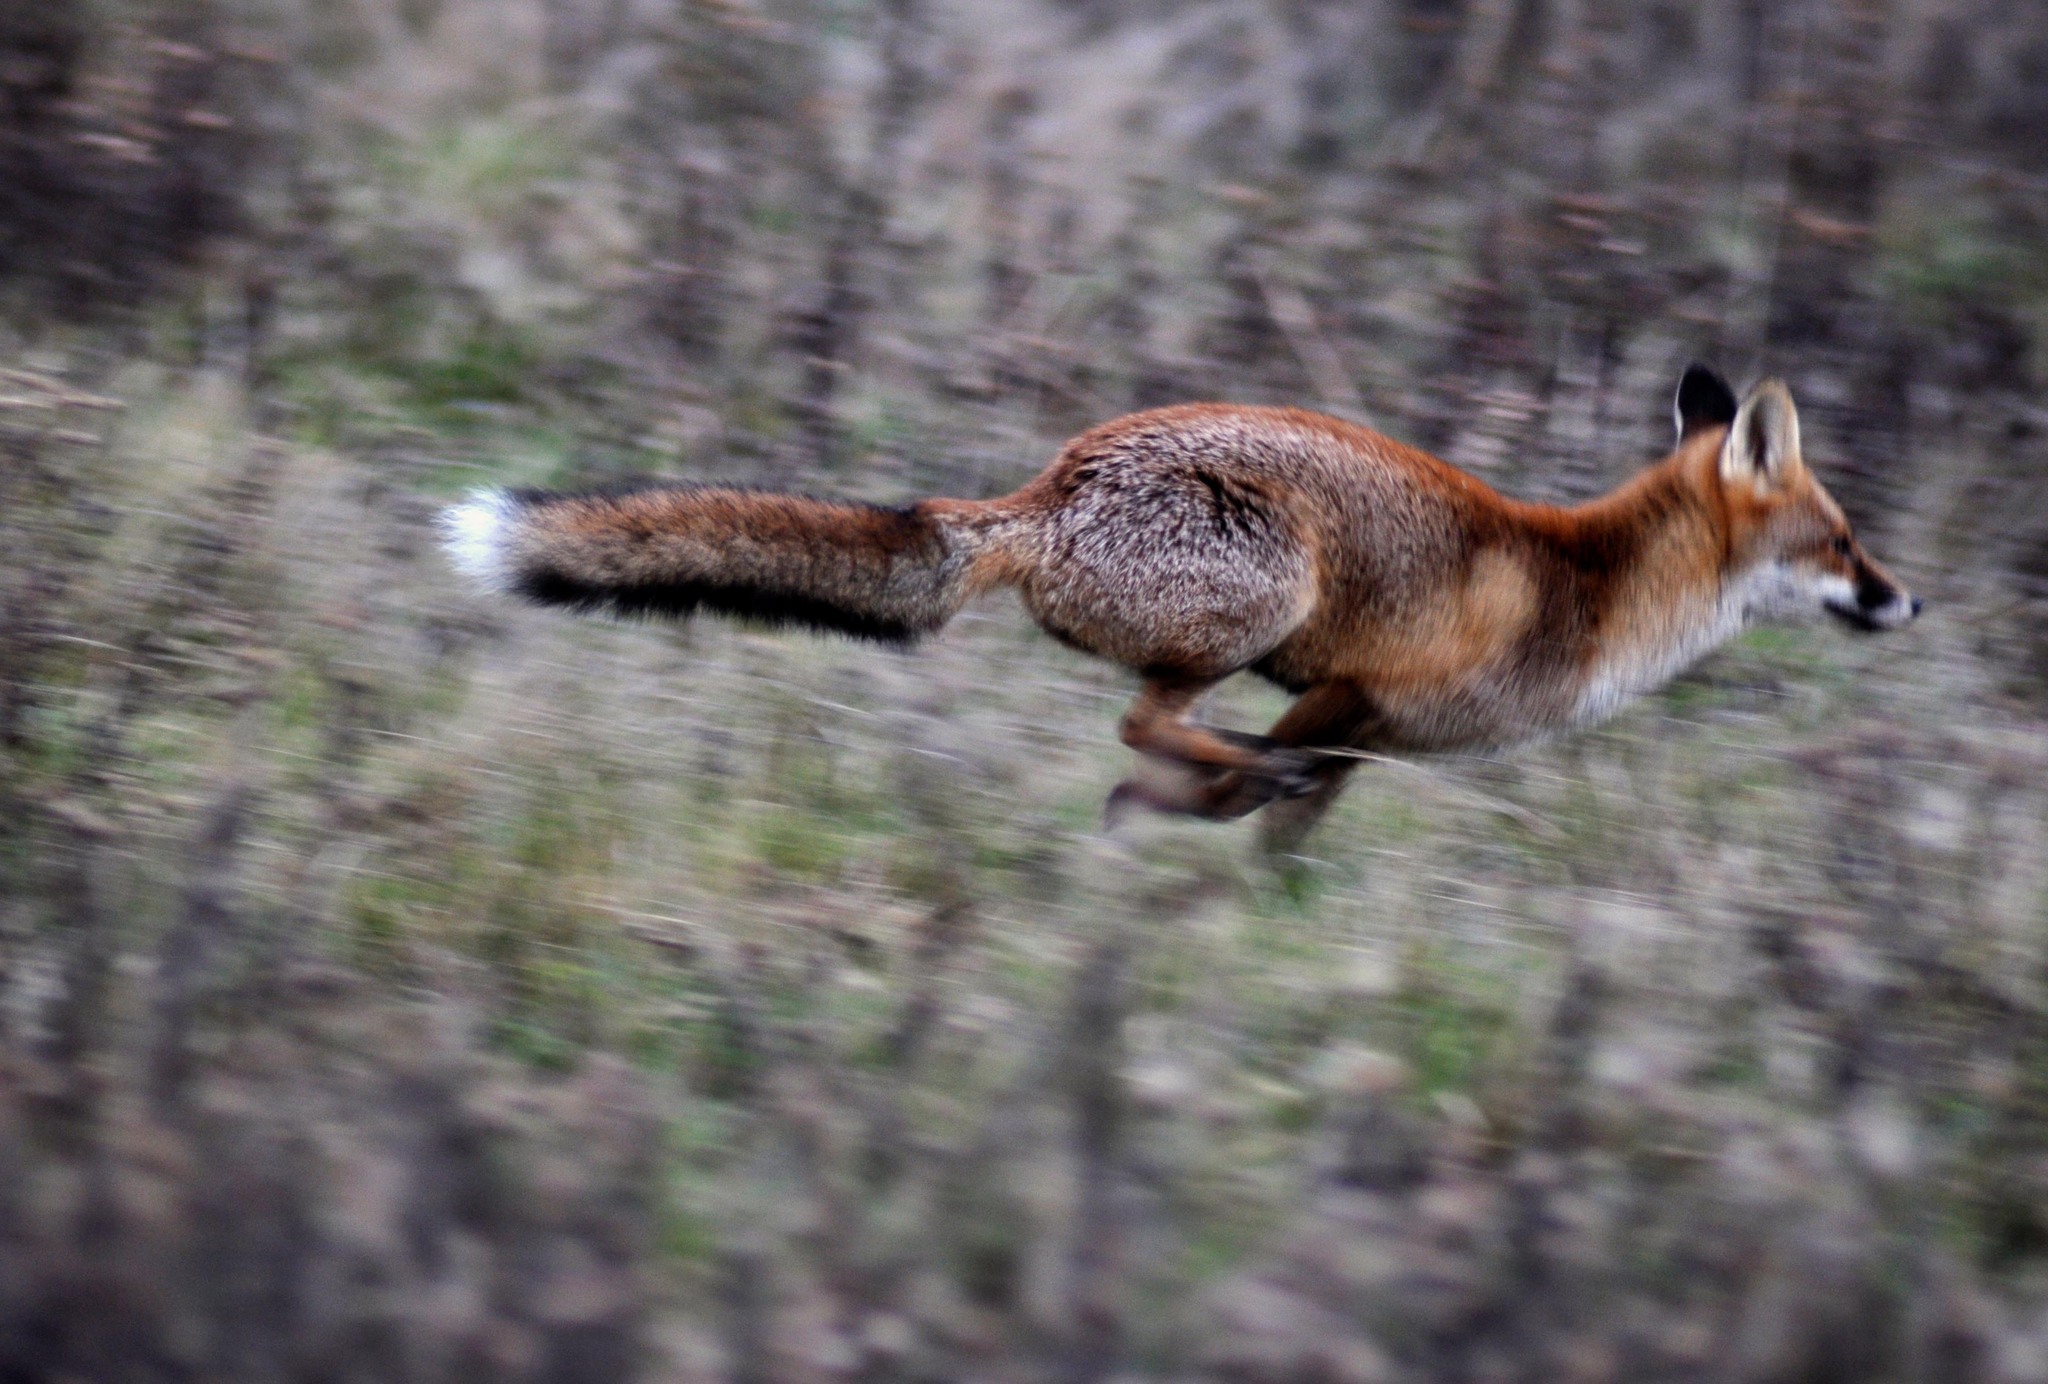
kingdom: Animalia
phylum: Chordata
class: Mammalia
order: Carnivora
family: Canidae
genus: Vulpes
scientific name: Vulpes vulpes
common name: Red fox
